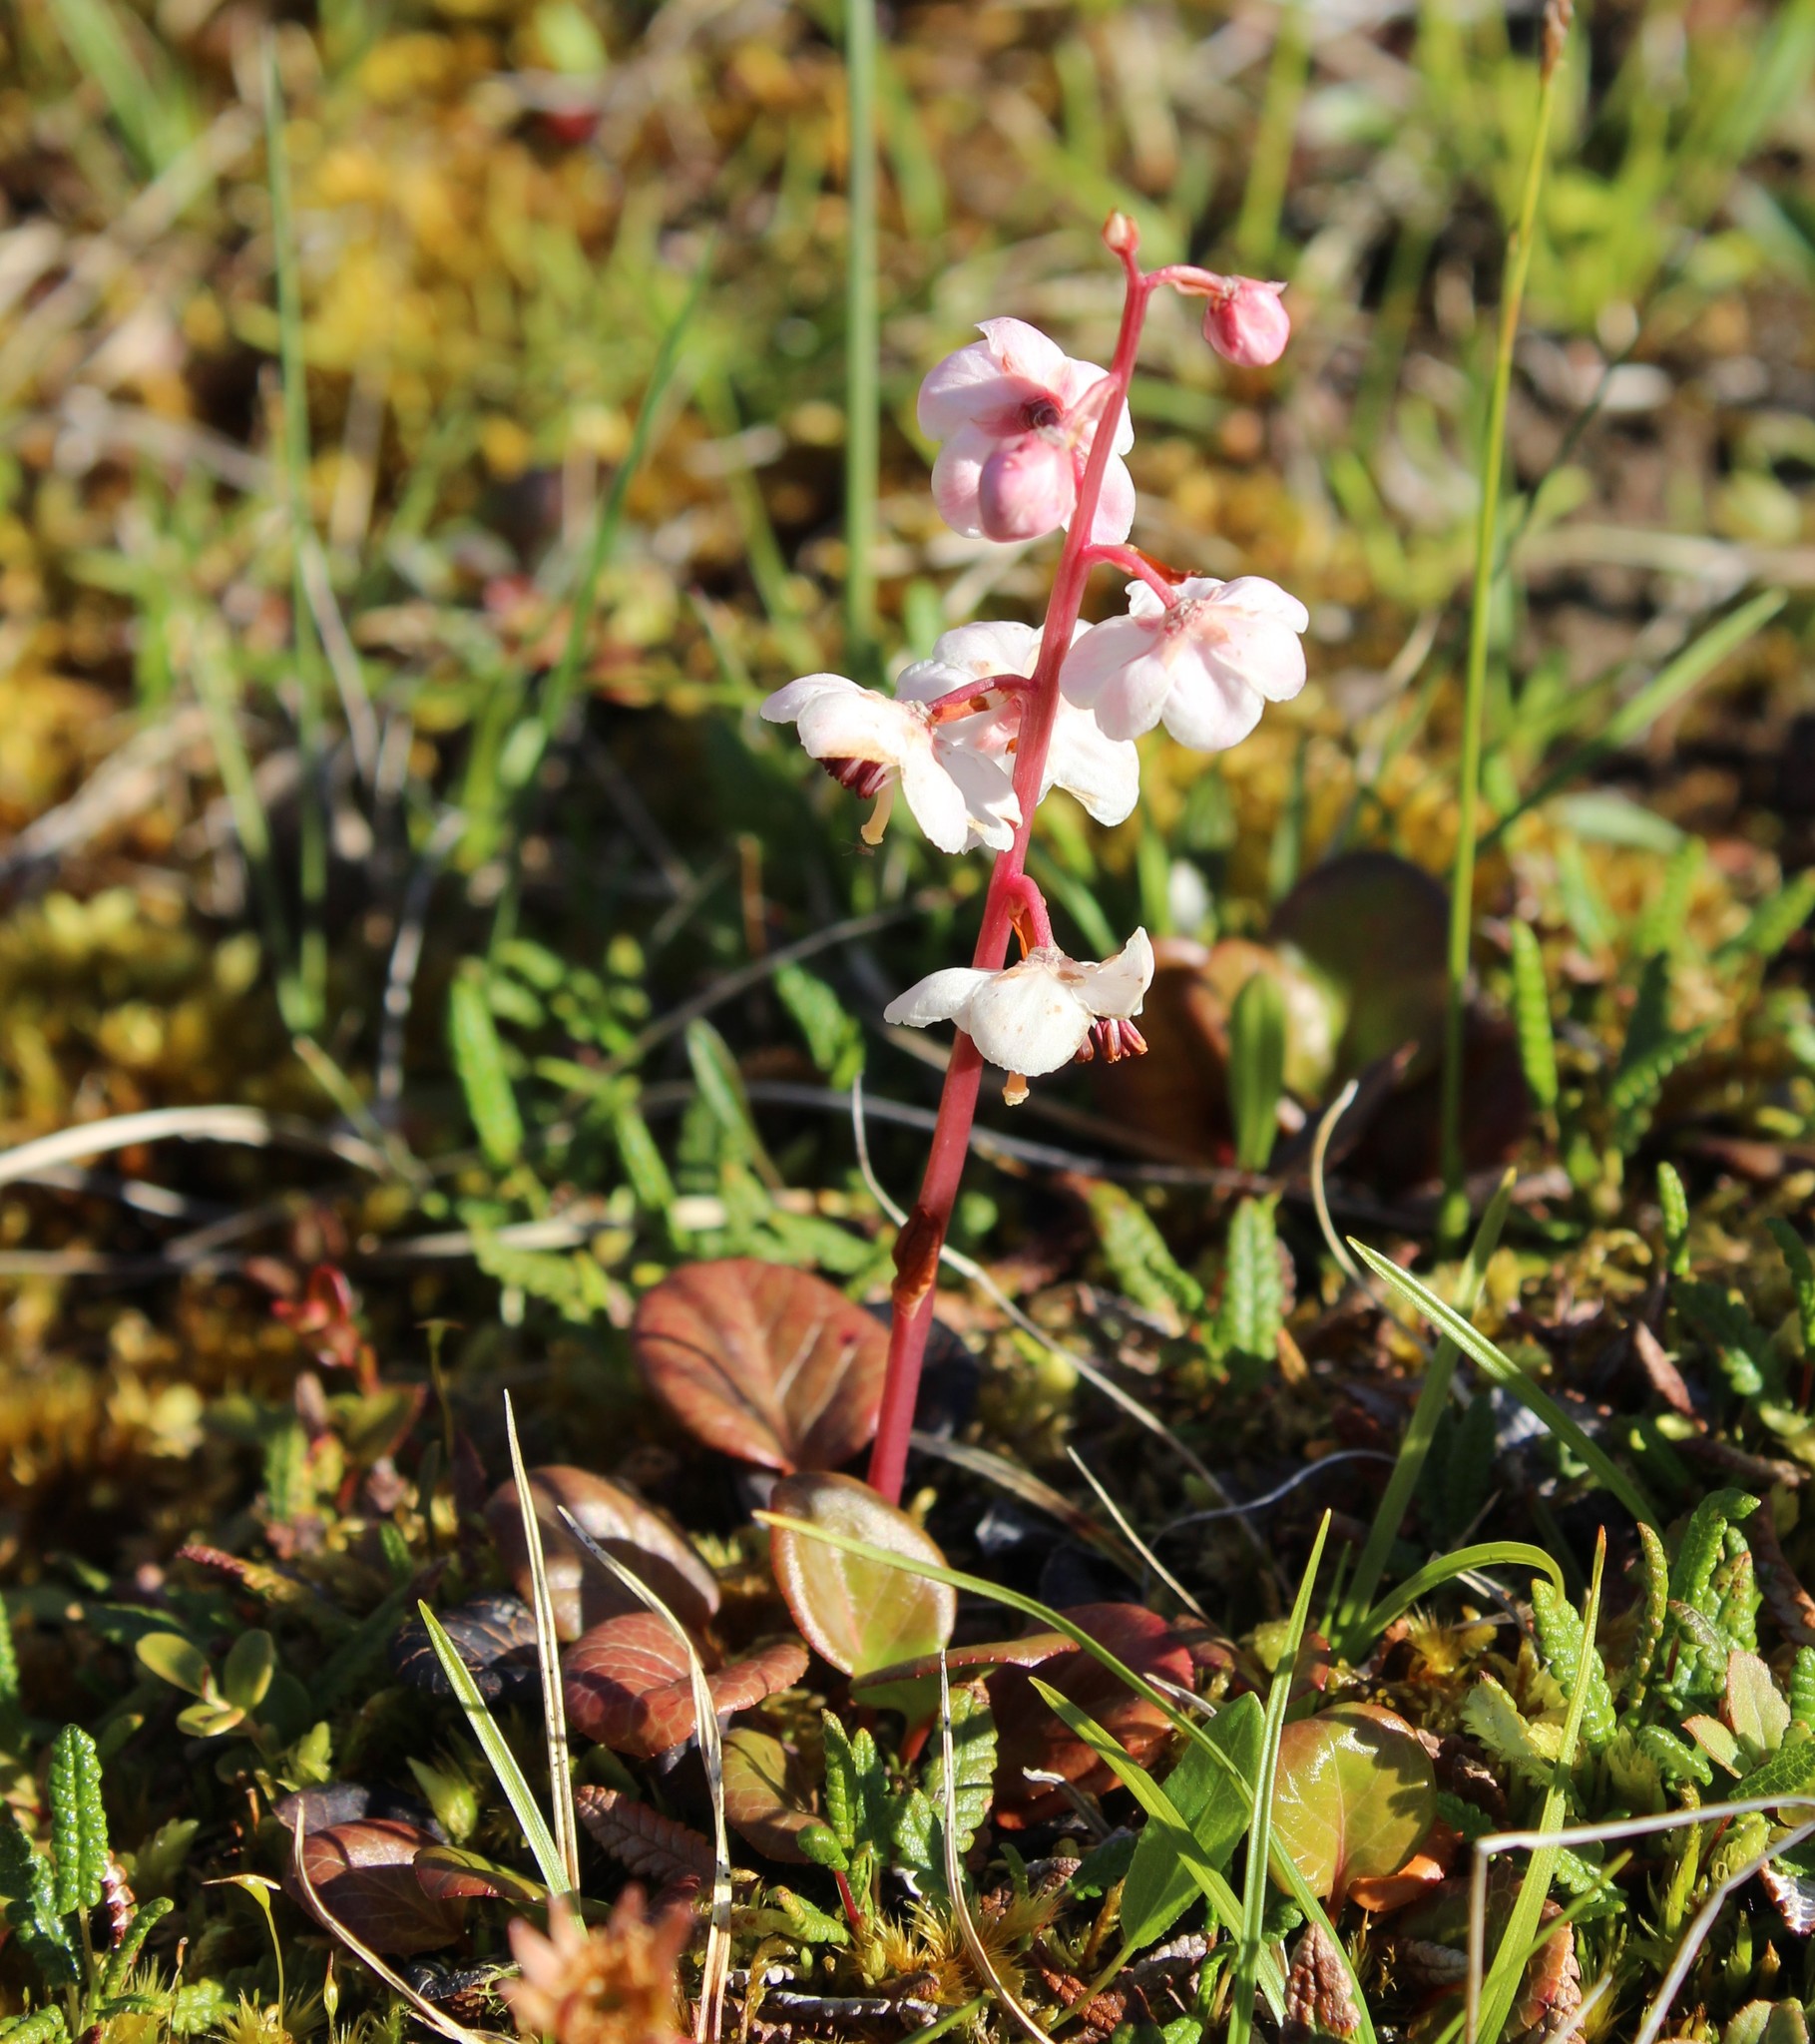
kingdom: Plantae
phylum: Tracheophyta
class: Magnoliopsida
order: Ericales
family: Ericaceae
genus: Pyrola
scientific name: Pyrola asarifolia
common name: Bog wintergreen
